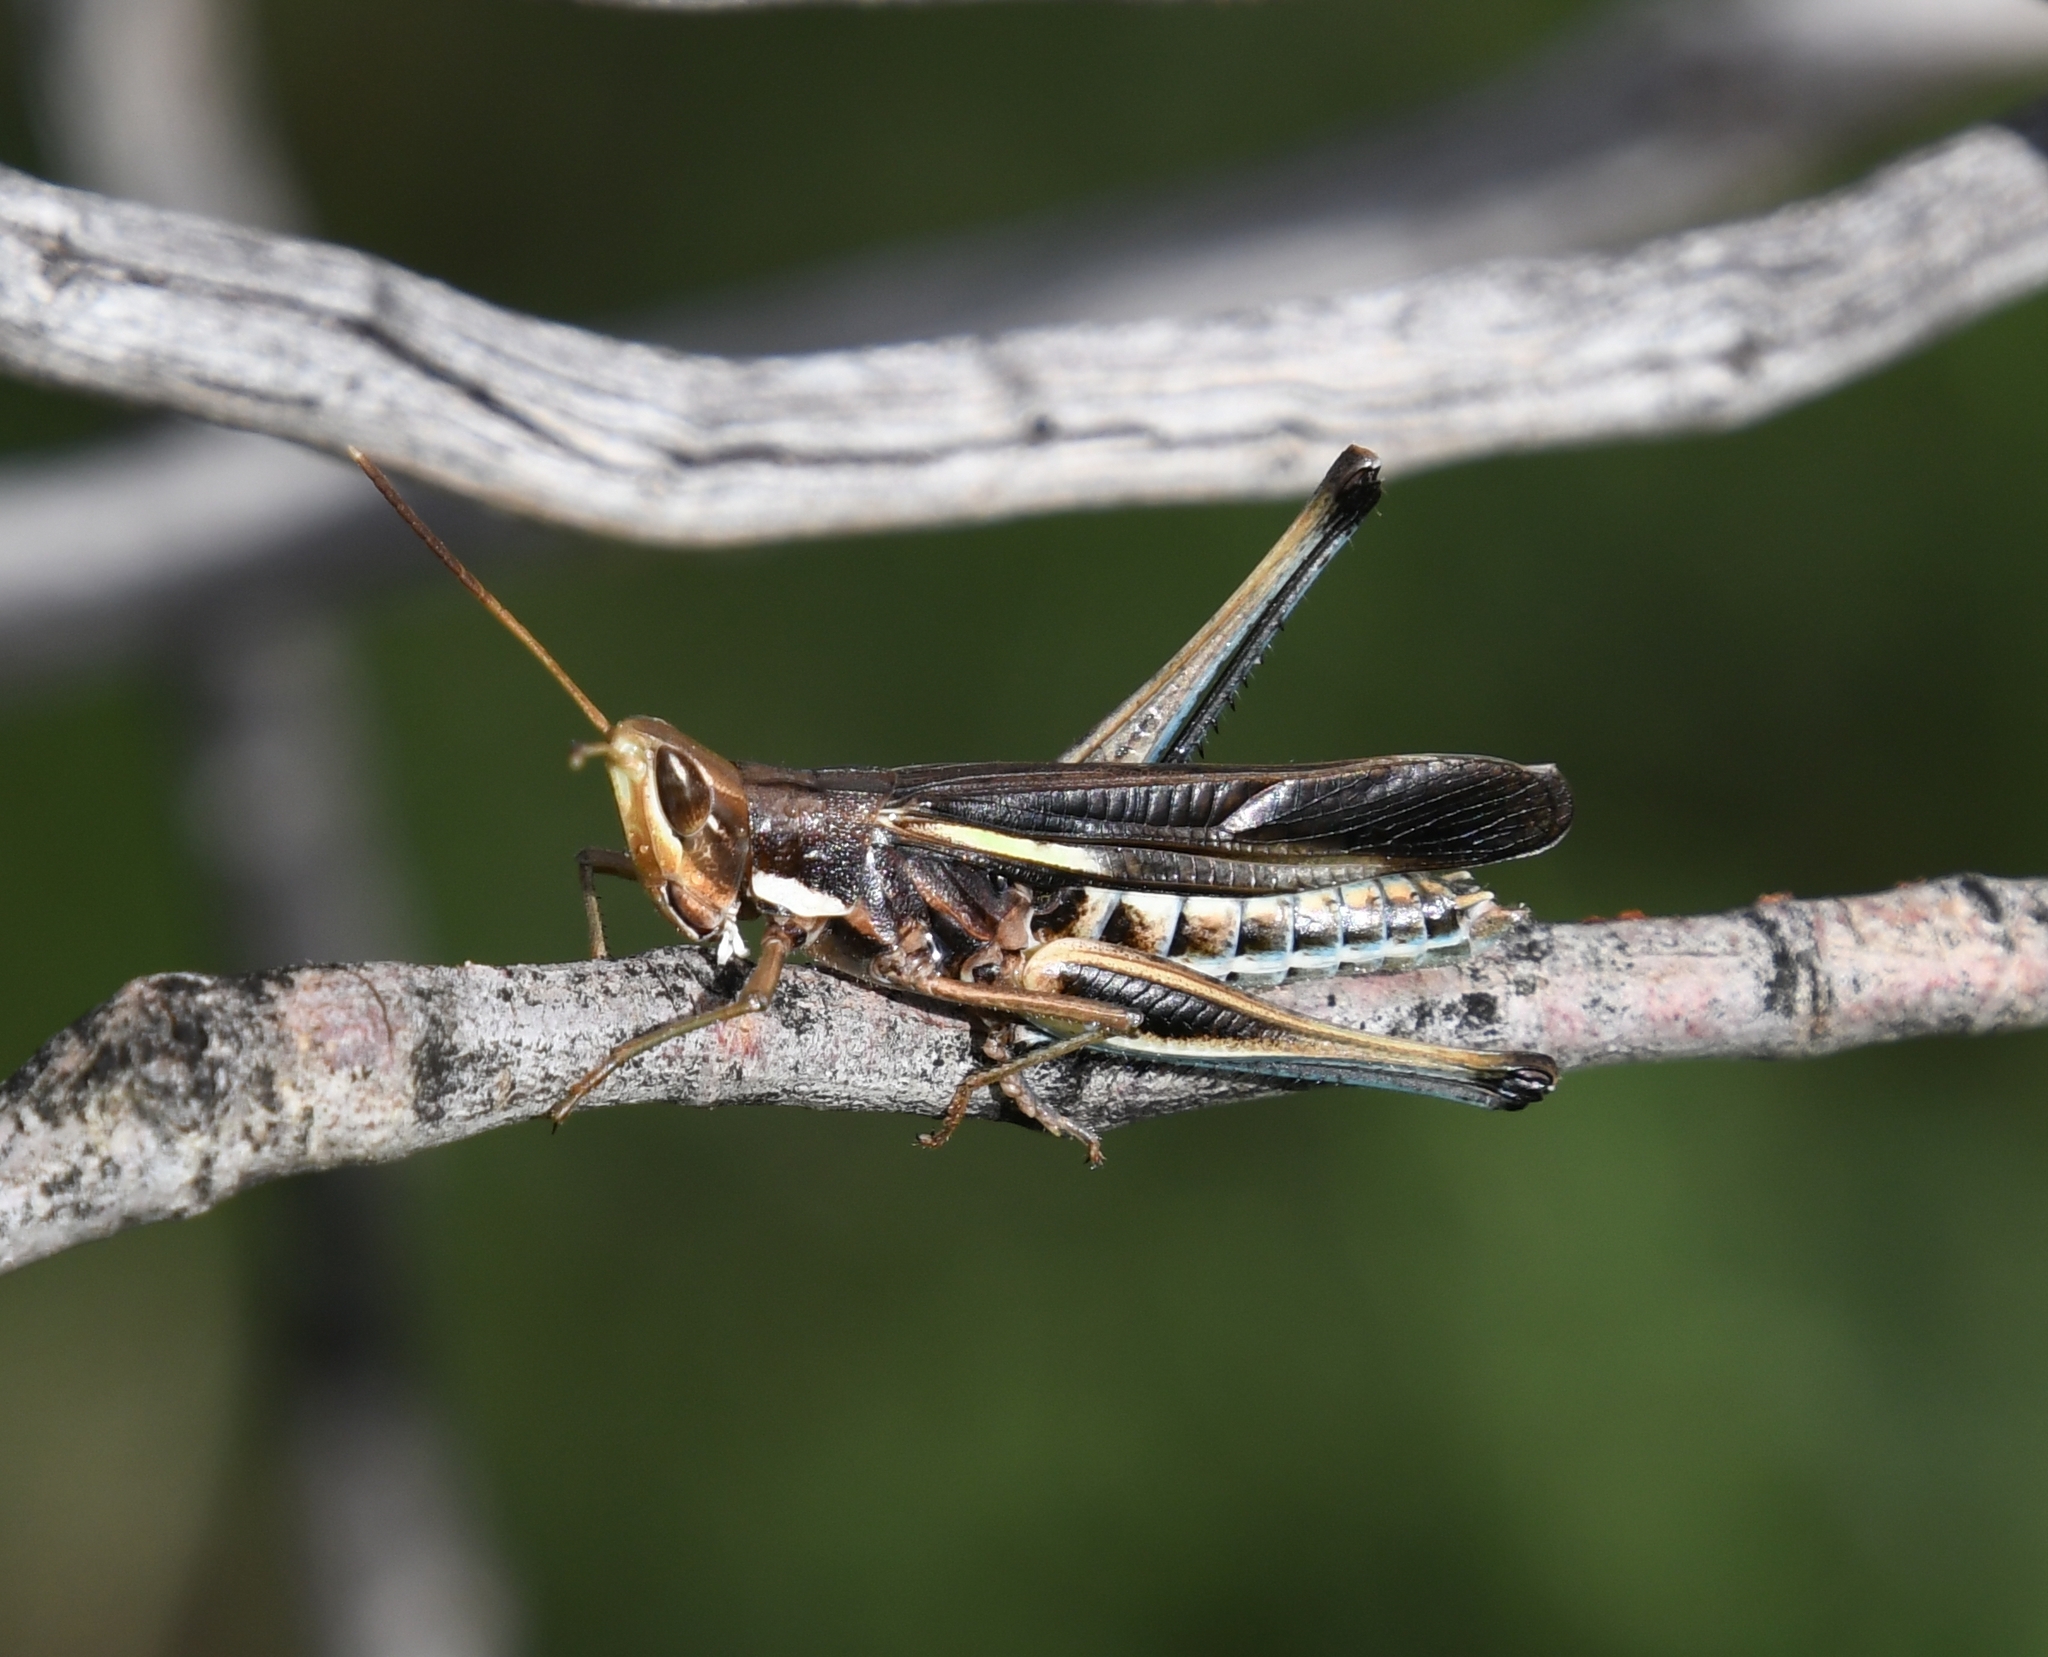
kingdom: Animalia
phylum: Arthropoda
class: Insecta
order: Orthoptera
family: Acrididae
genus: Syrbula
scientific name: Syrbula montezuma
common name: Montezuma's grasshopper
